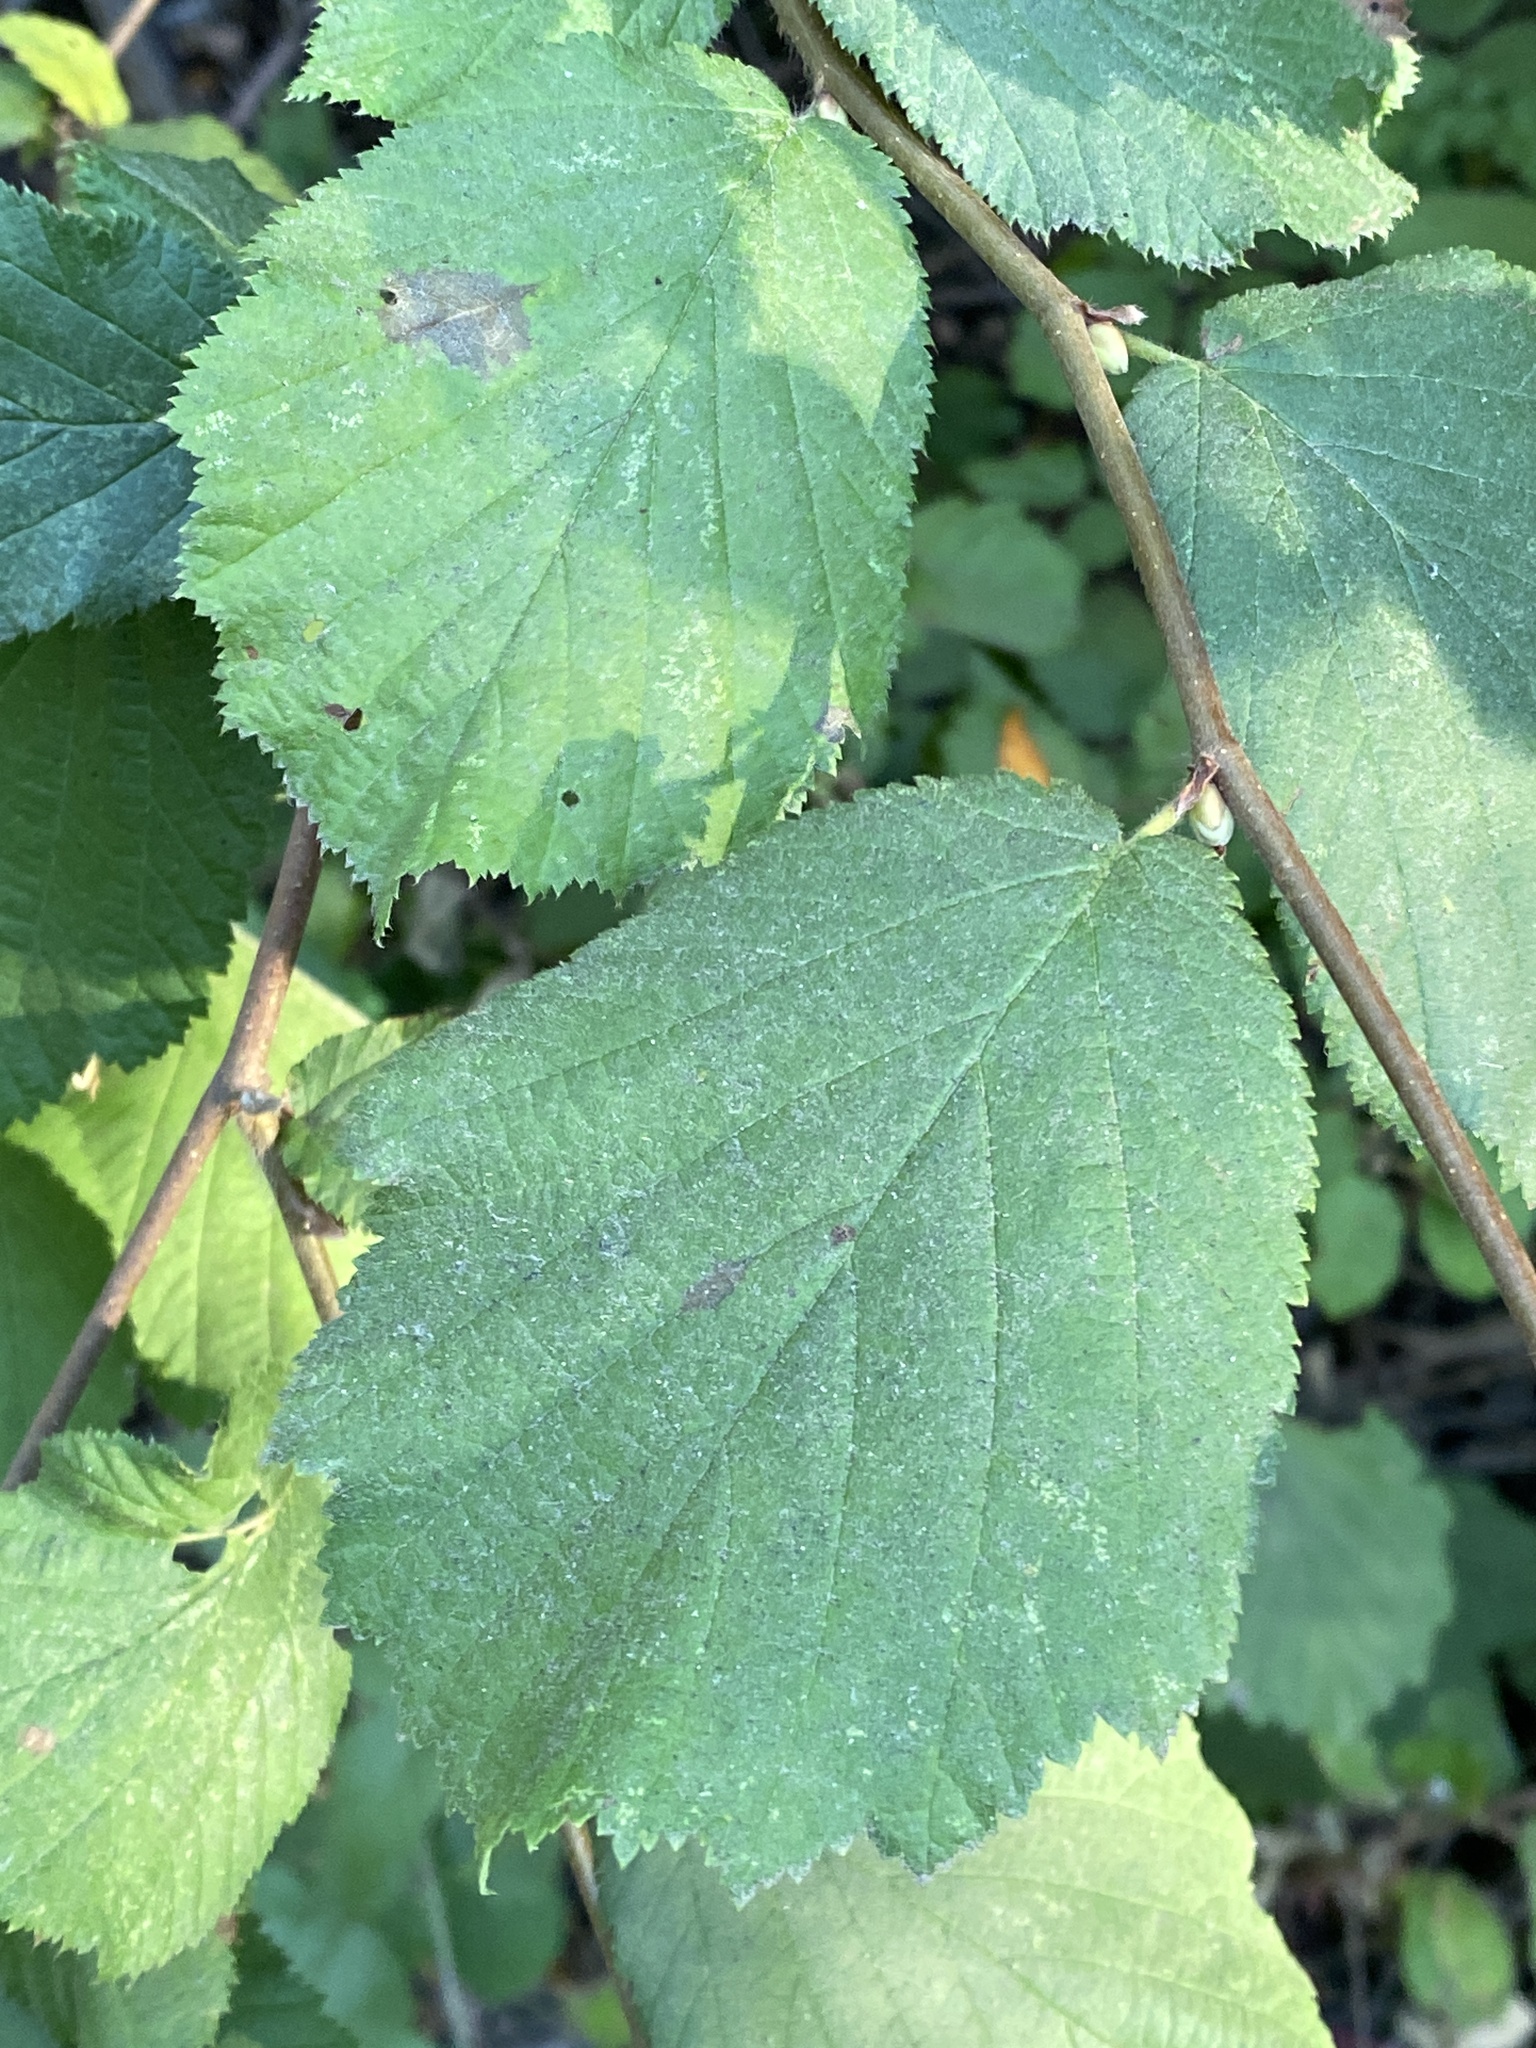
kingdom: Plantae
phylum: Tracheophyta
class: Magnoliopsida
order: Fagales
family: Betulaceae
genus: Corylus
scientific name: Corylus cornuta
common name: Beaked hazel
